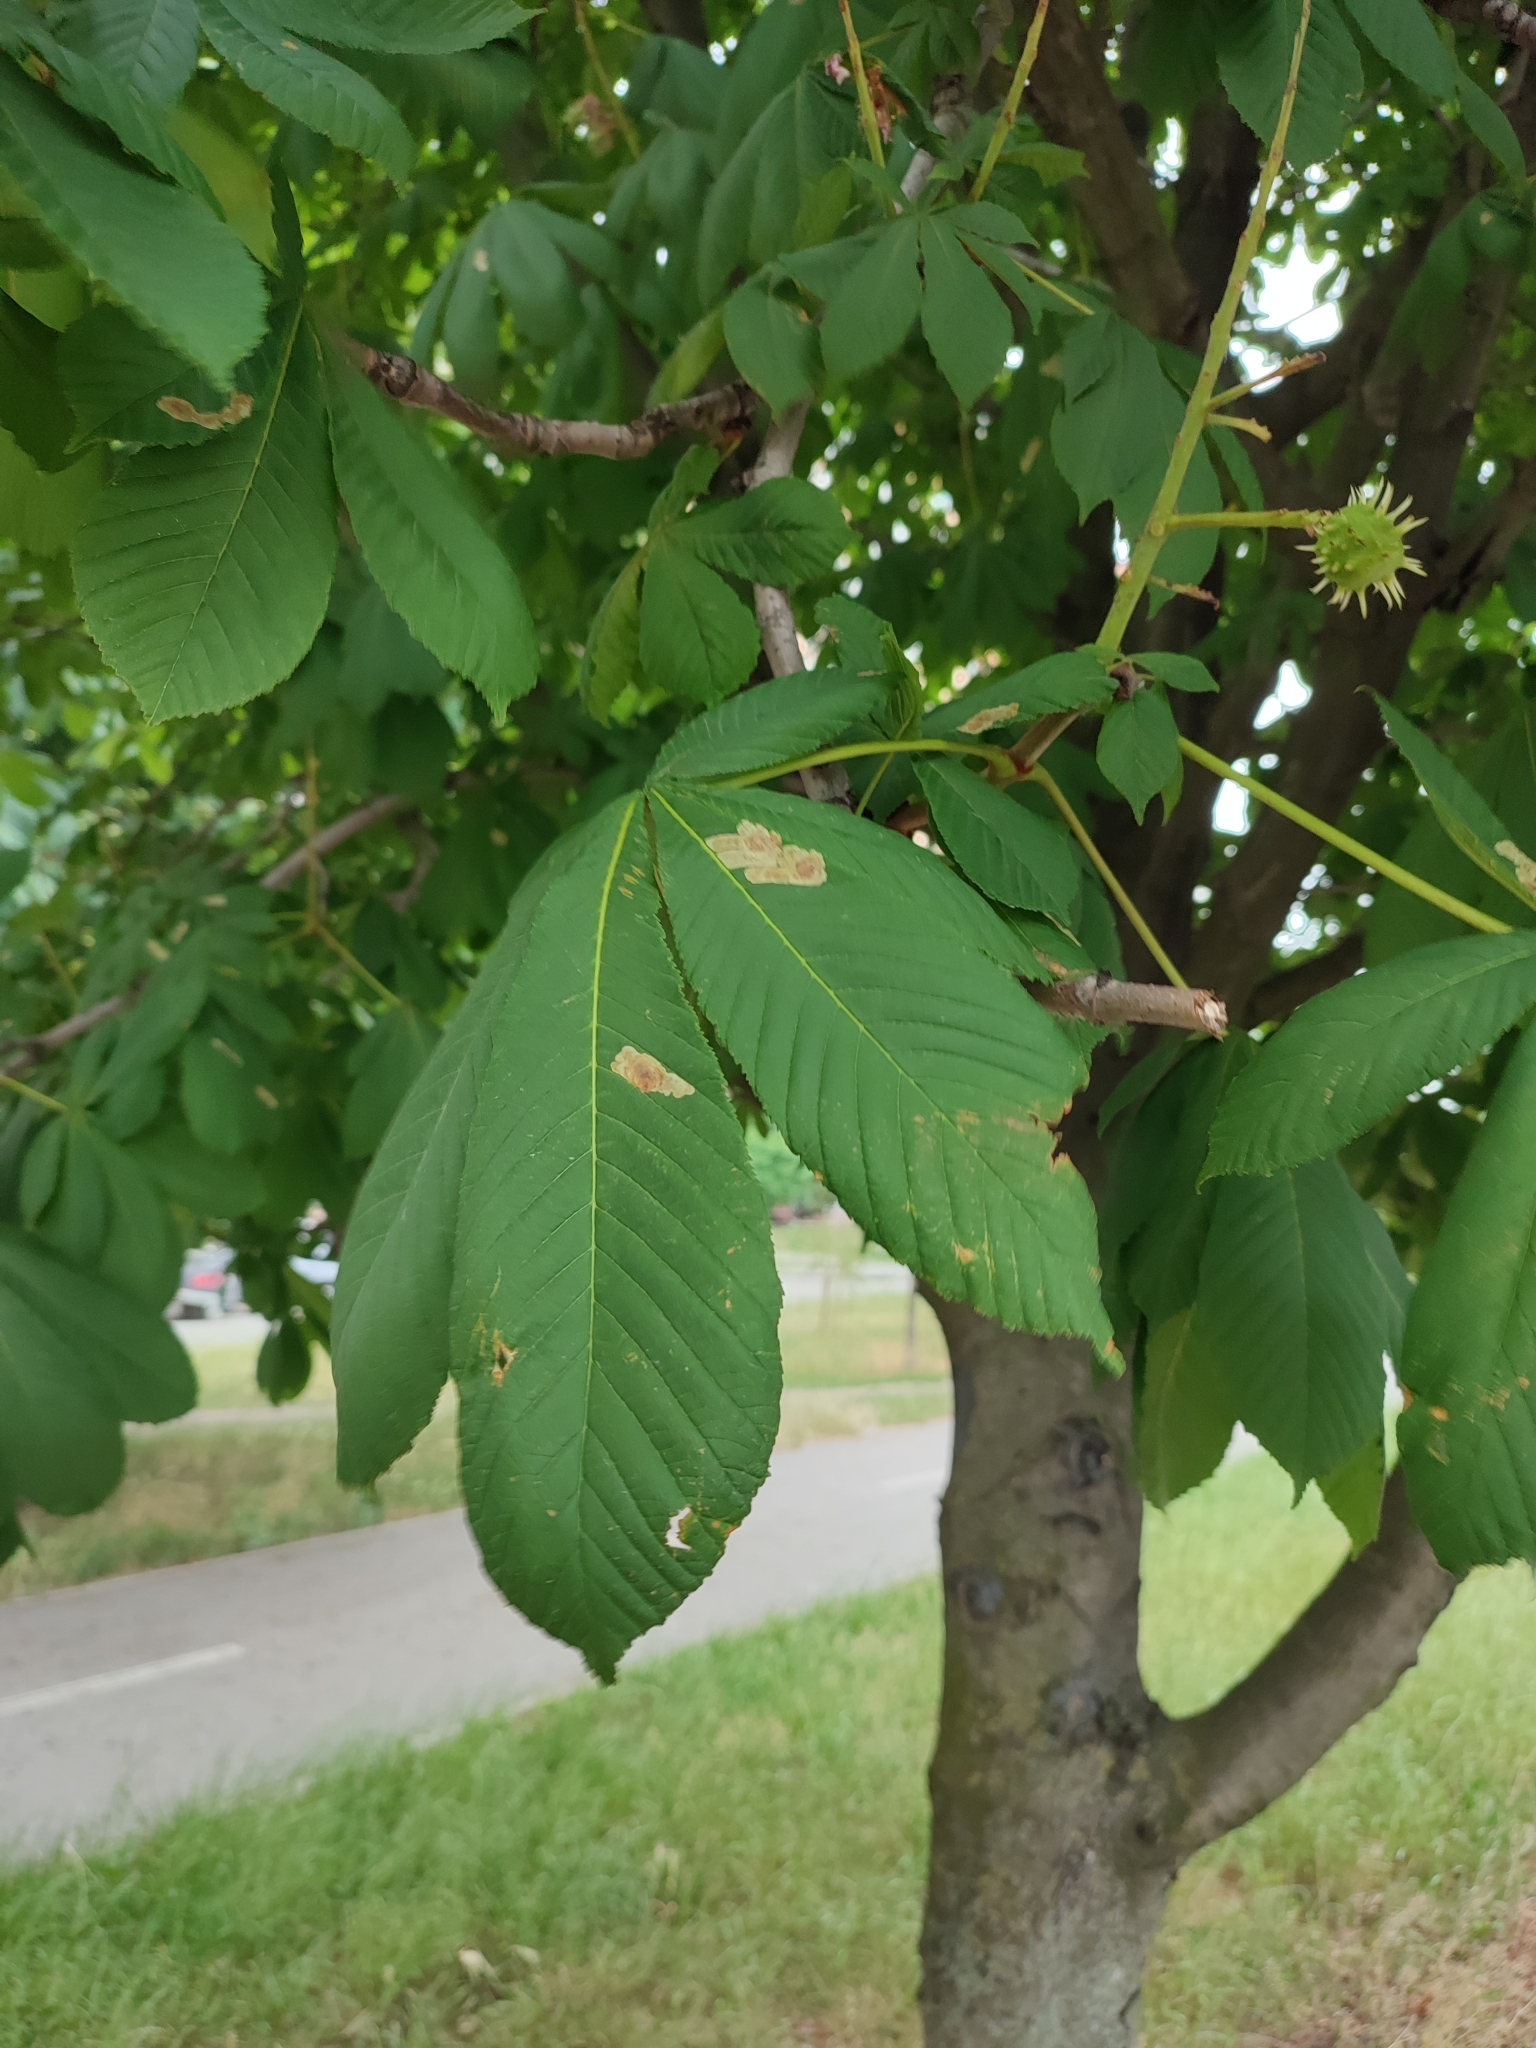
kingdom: Animalia
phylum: Arthropoda
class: Insecta
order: Lepidoptera
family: Gracillariidae
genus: Cameraria
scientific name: Cameraria ohridella
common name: Horse-chestnut leaf-miner
